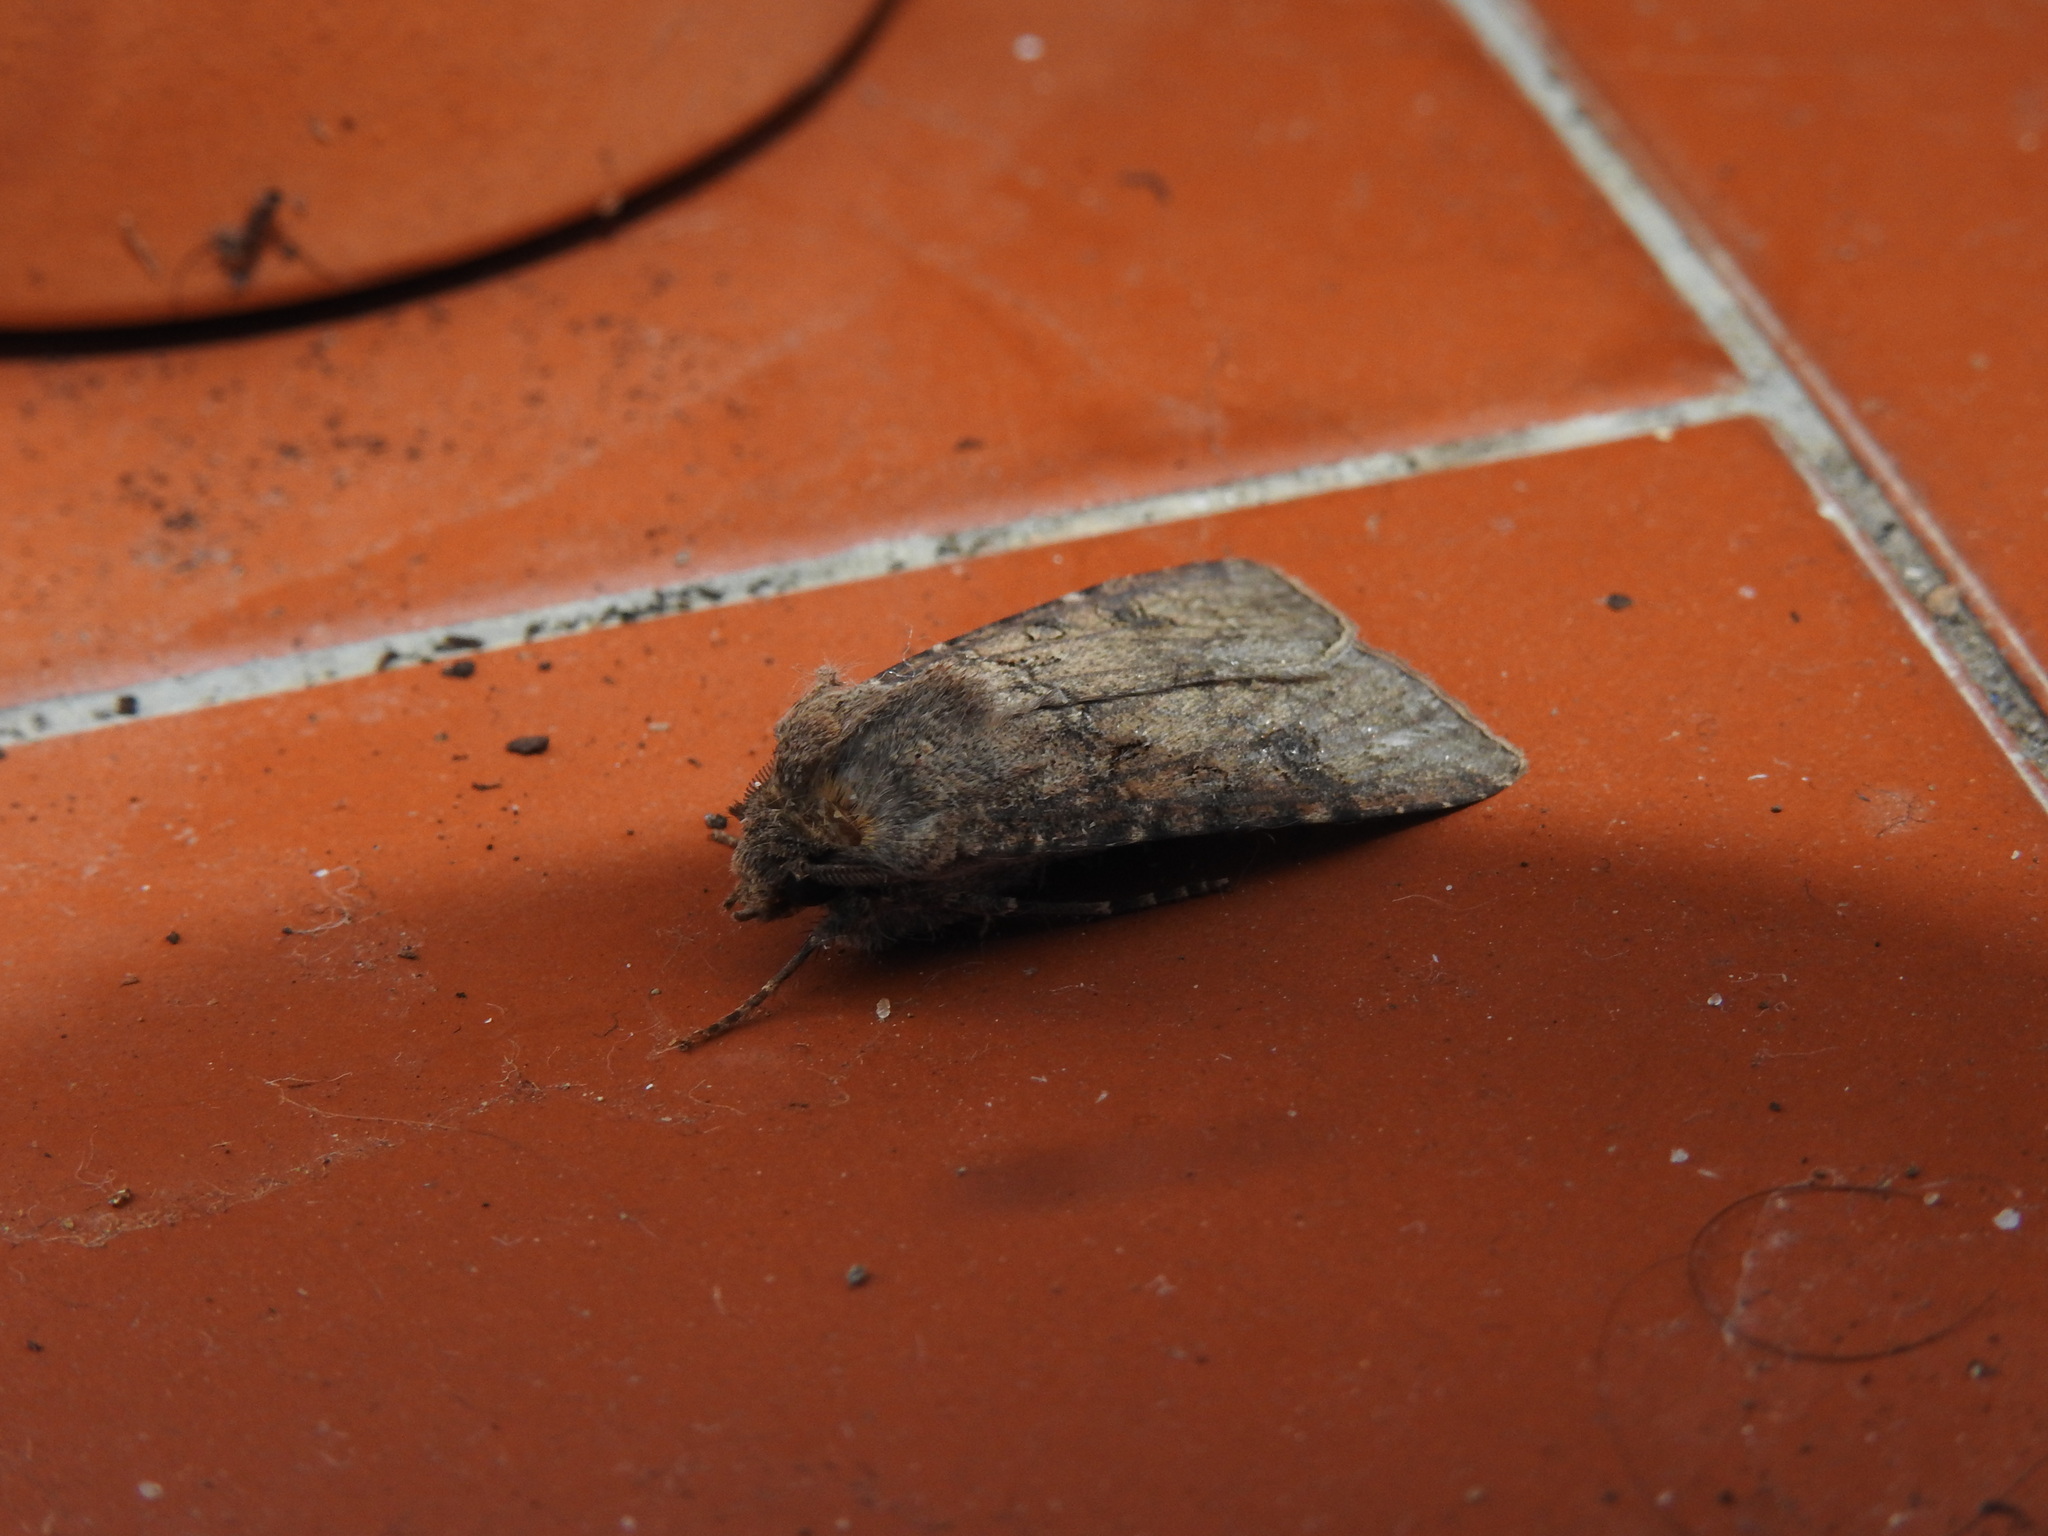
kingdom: Animalia
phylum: Arthropoda
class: Insecta
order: Lepidoptera
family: Noctuidae
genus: Agrotis
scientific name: Agrotis segetum
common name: Turnip moth
